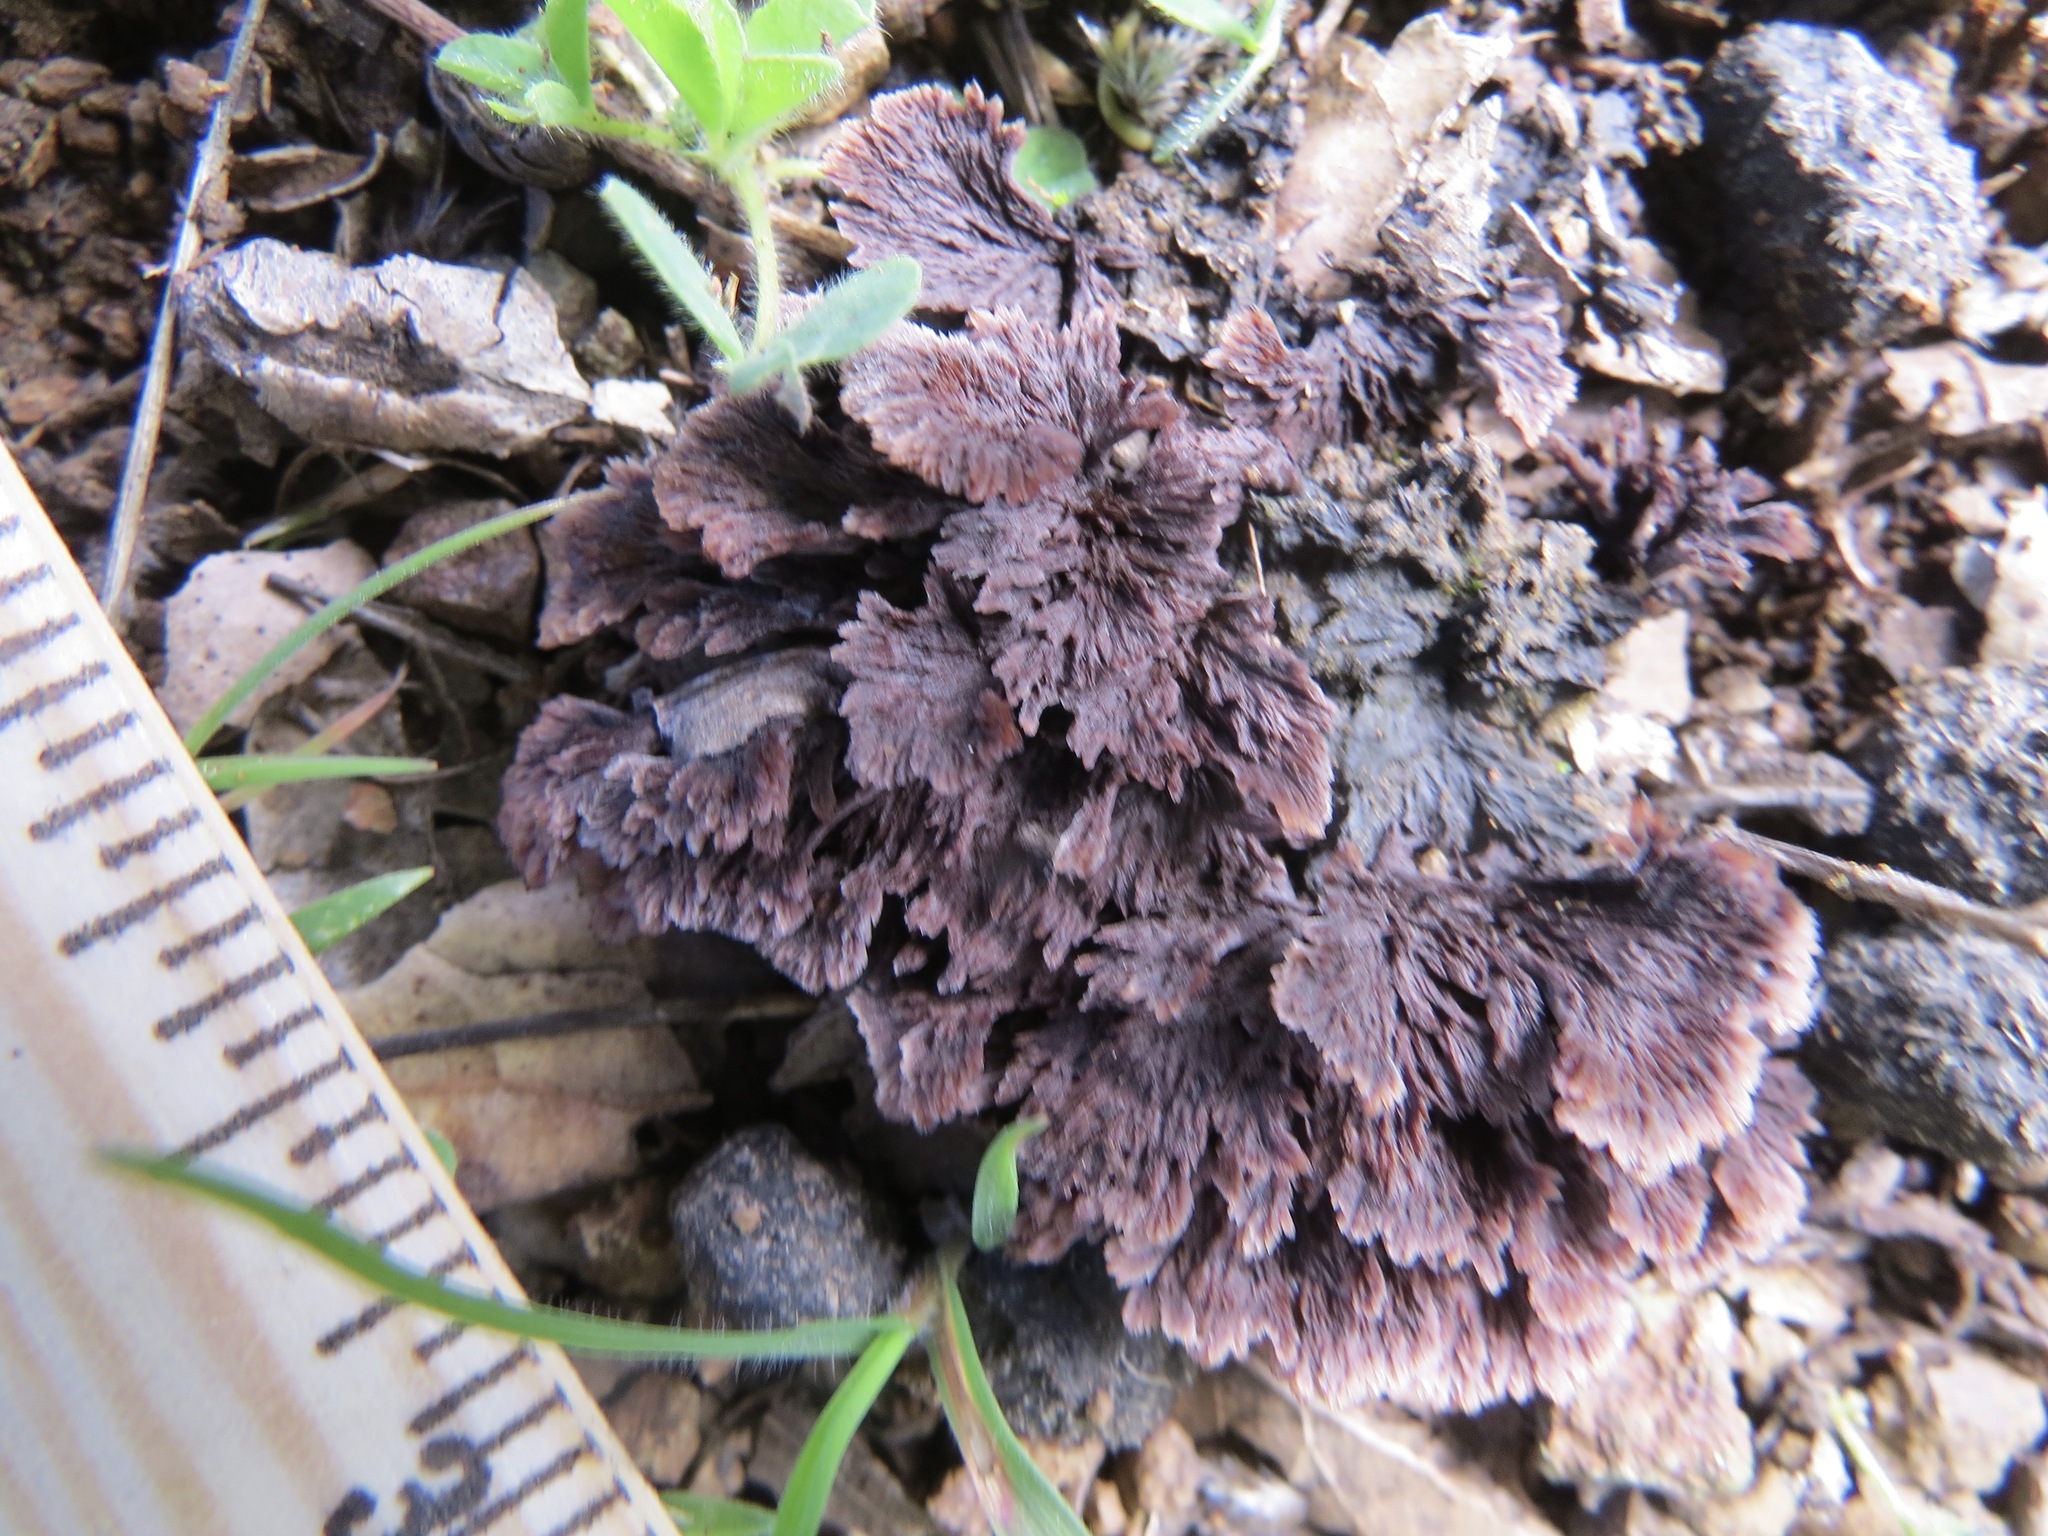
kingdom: Fungi
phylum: Basidiomycota
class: Agaricomycetes
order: Thelephorales
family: Thelephoraceae
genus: Thelephora
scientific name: Thelephora terrestris
